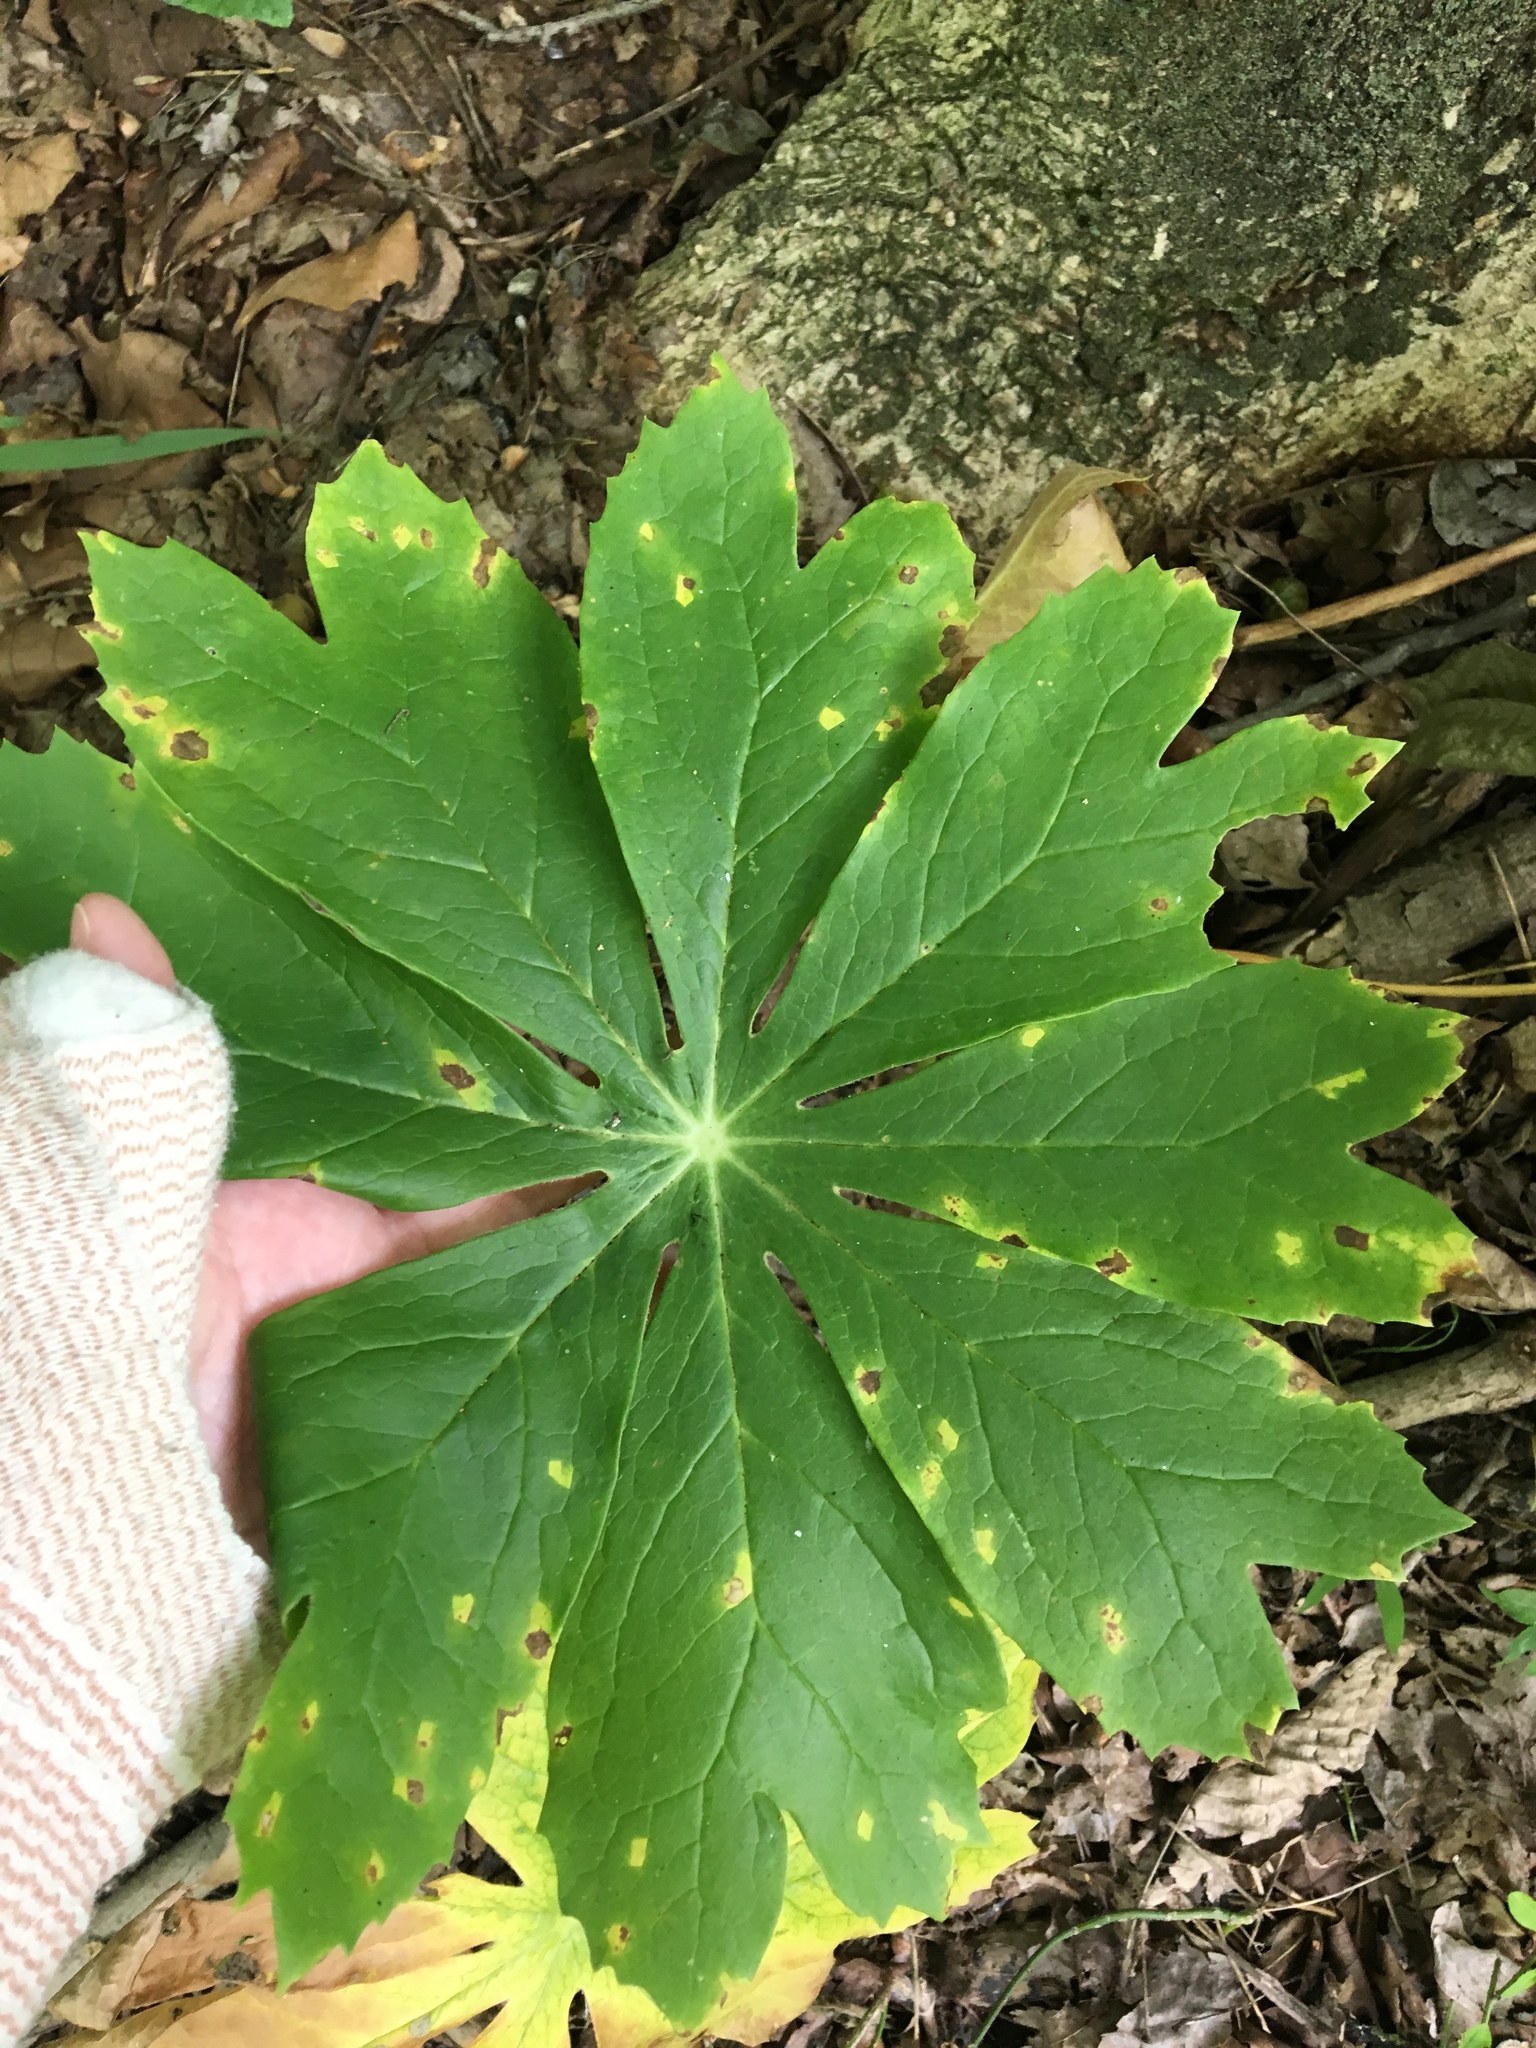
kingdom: Plantae
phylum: Tracheophyta
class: Magnoliopsida
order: Ranunculales
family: Berberidaceae
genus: Podophyllum
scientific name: Podophyllum peltatum
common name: Wild mandrake
